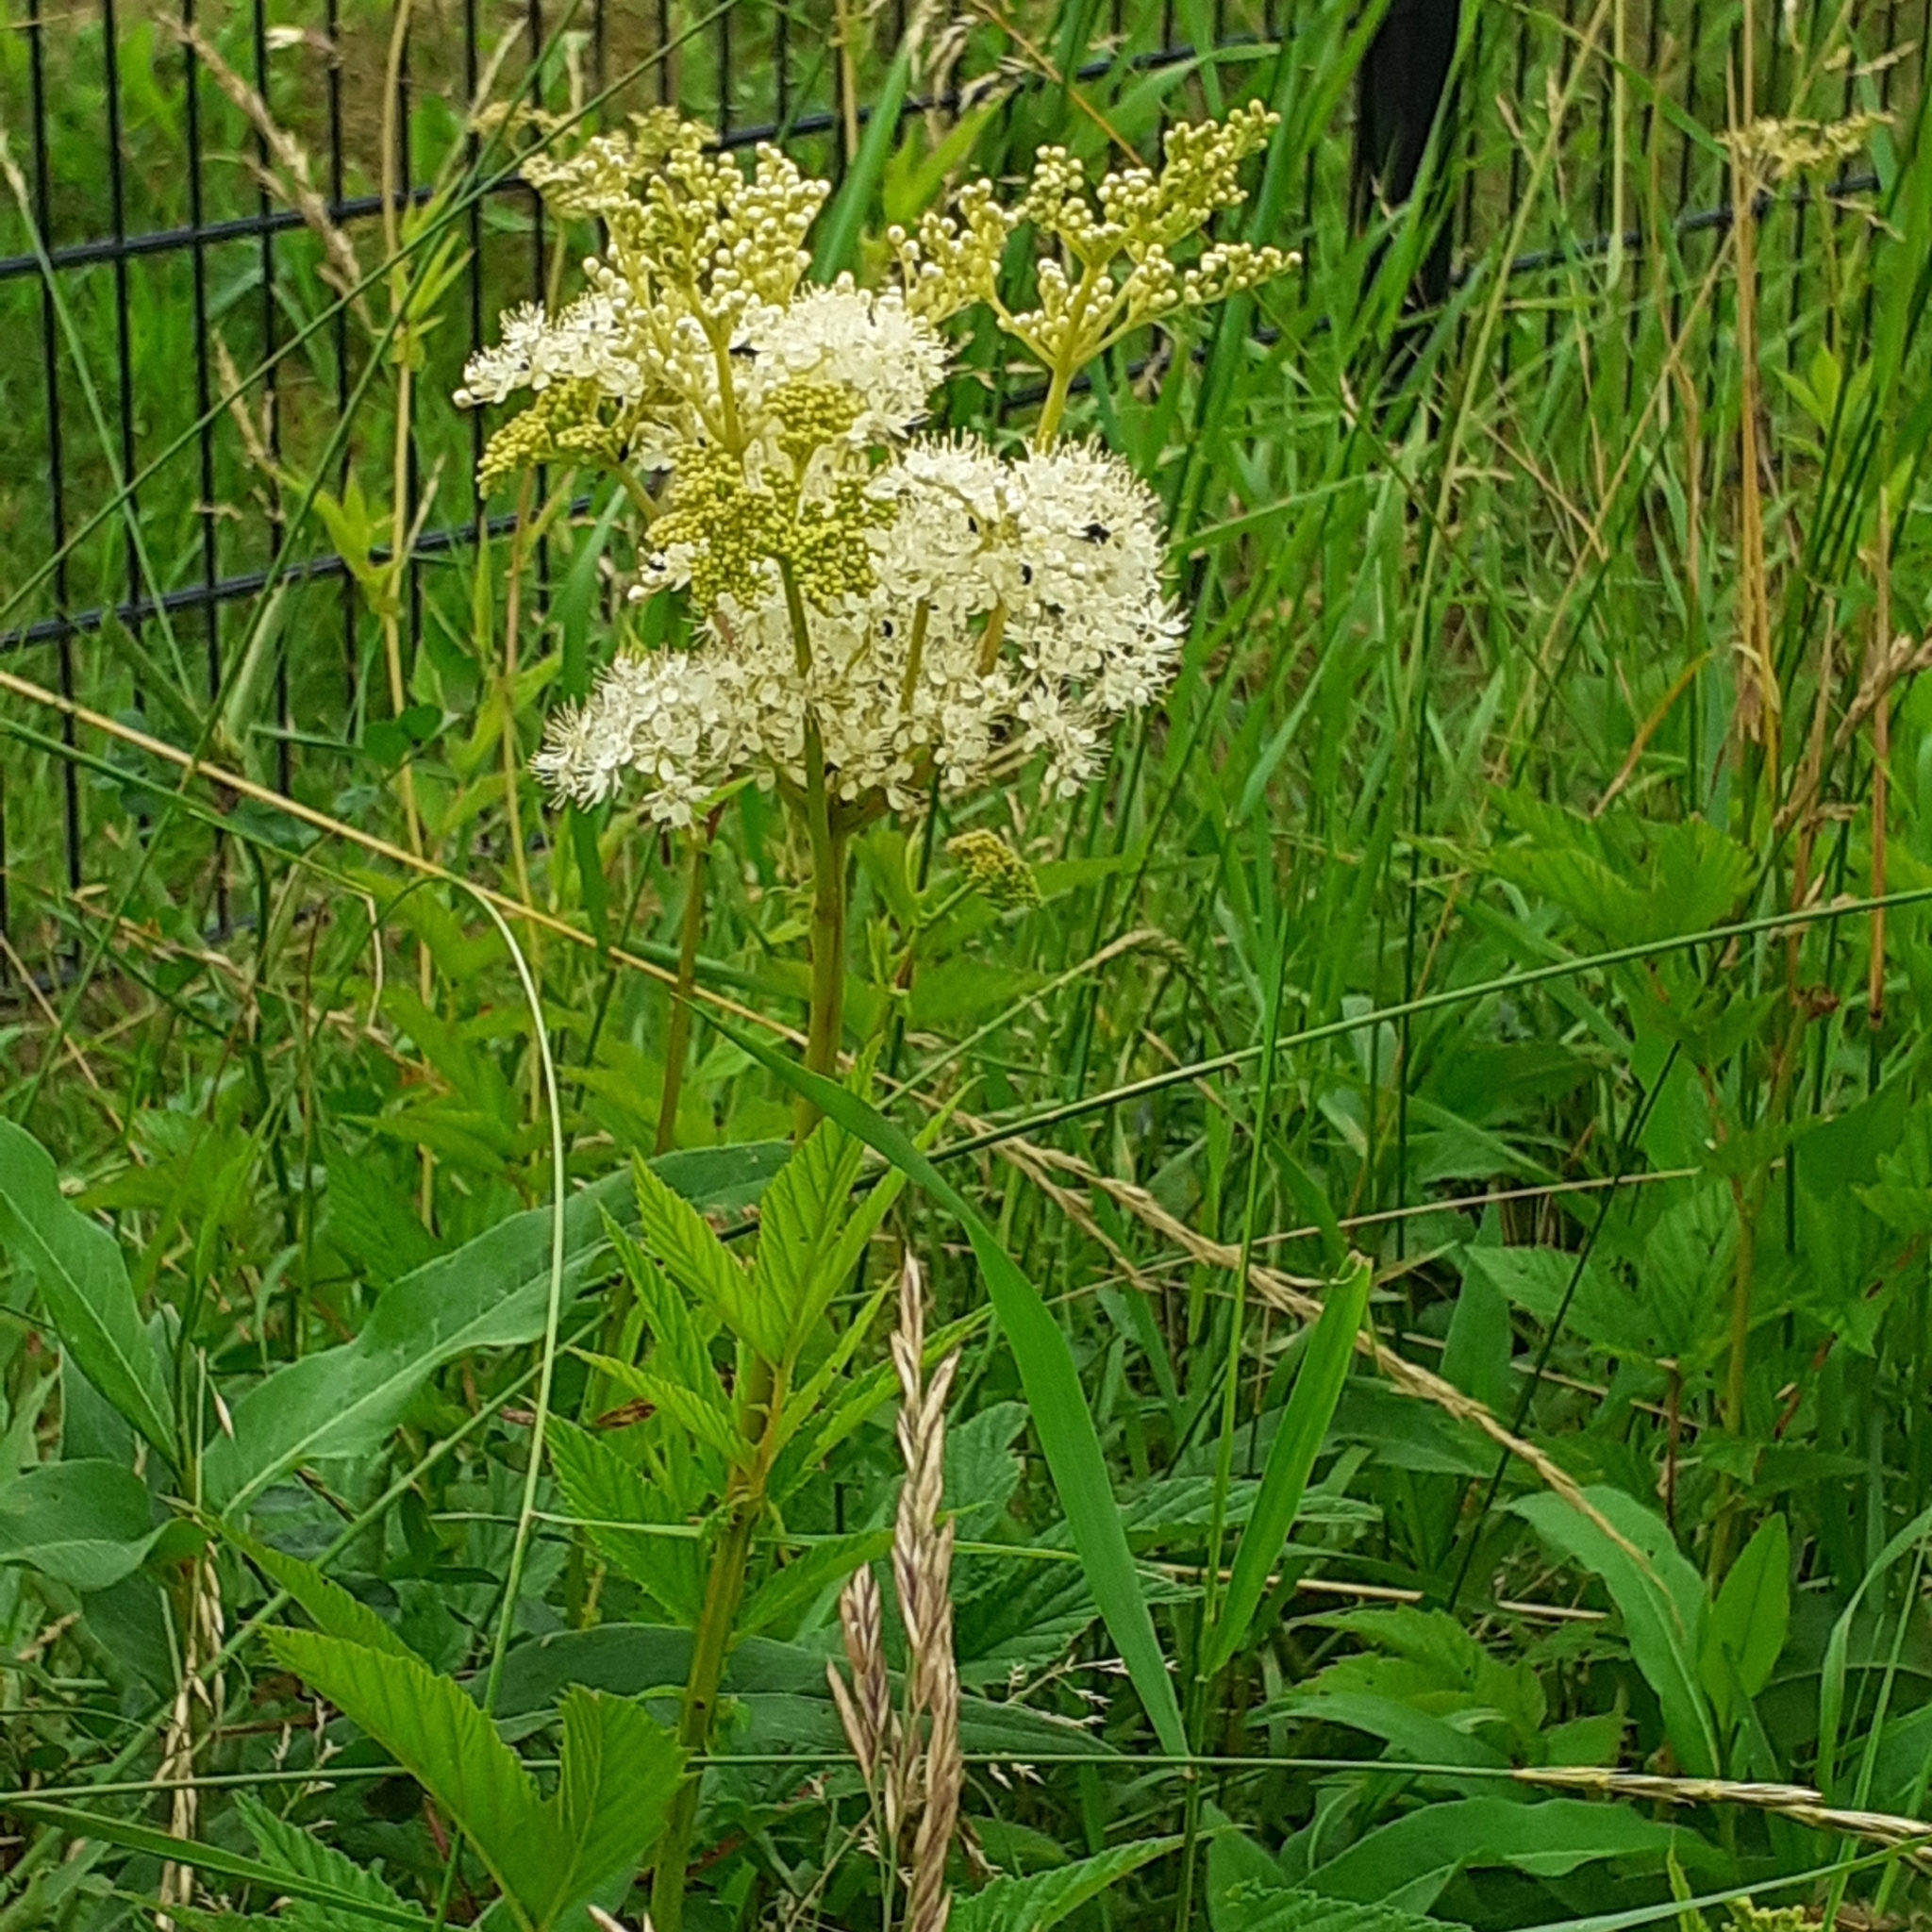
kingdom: Plantae
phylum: Tracheophyta
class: Magnoliopsida
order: Rosales
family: Rosaceae
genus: Filipendula
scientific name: Filipendula ulmaria
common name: Meadowsweet
